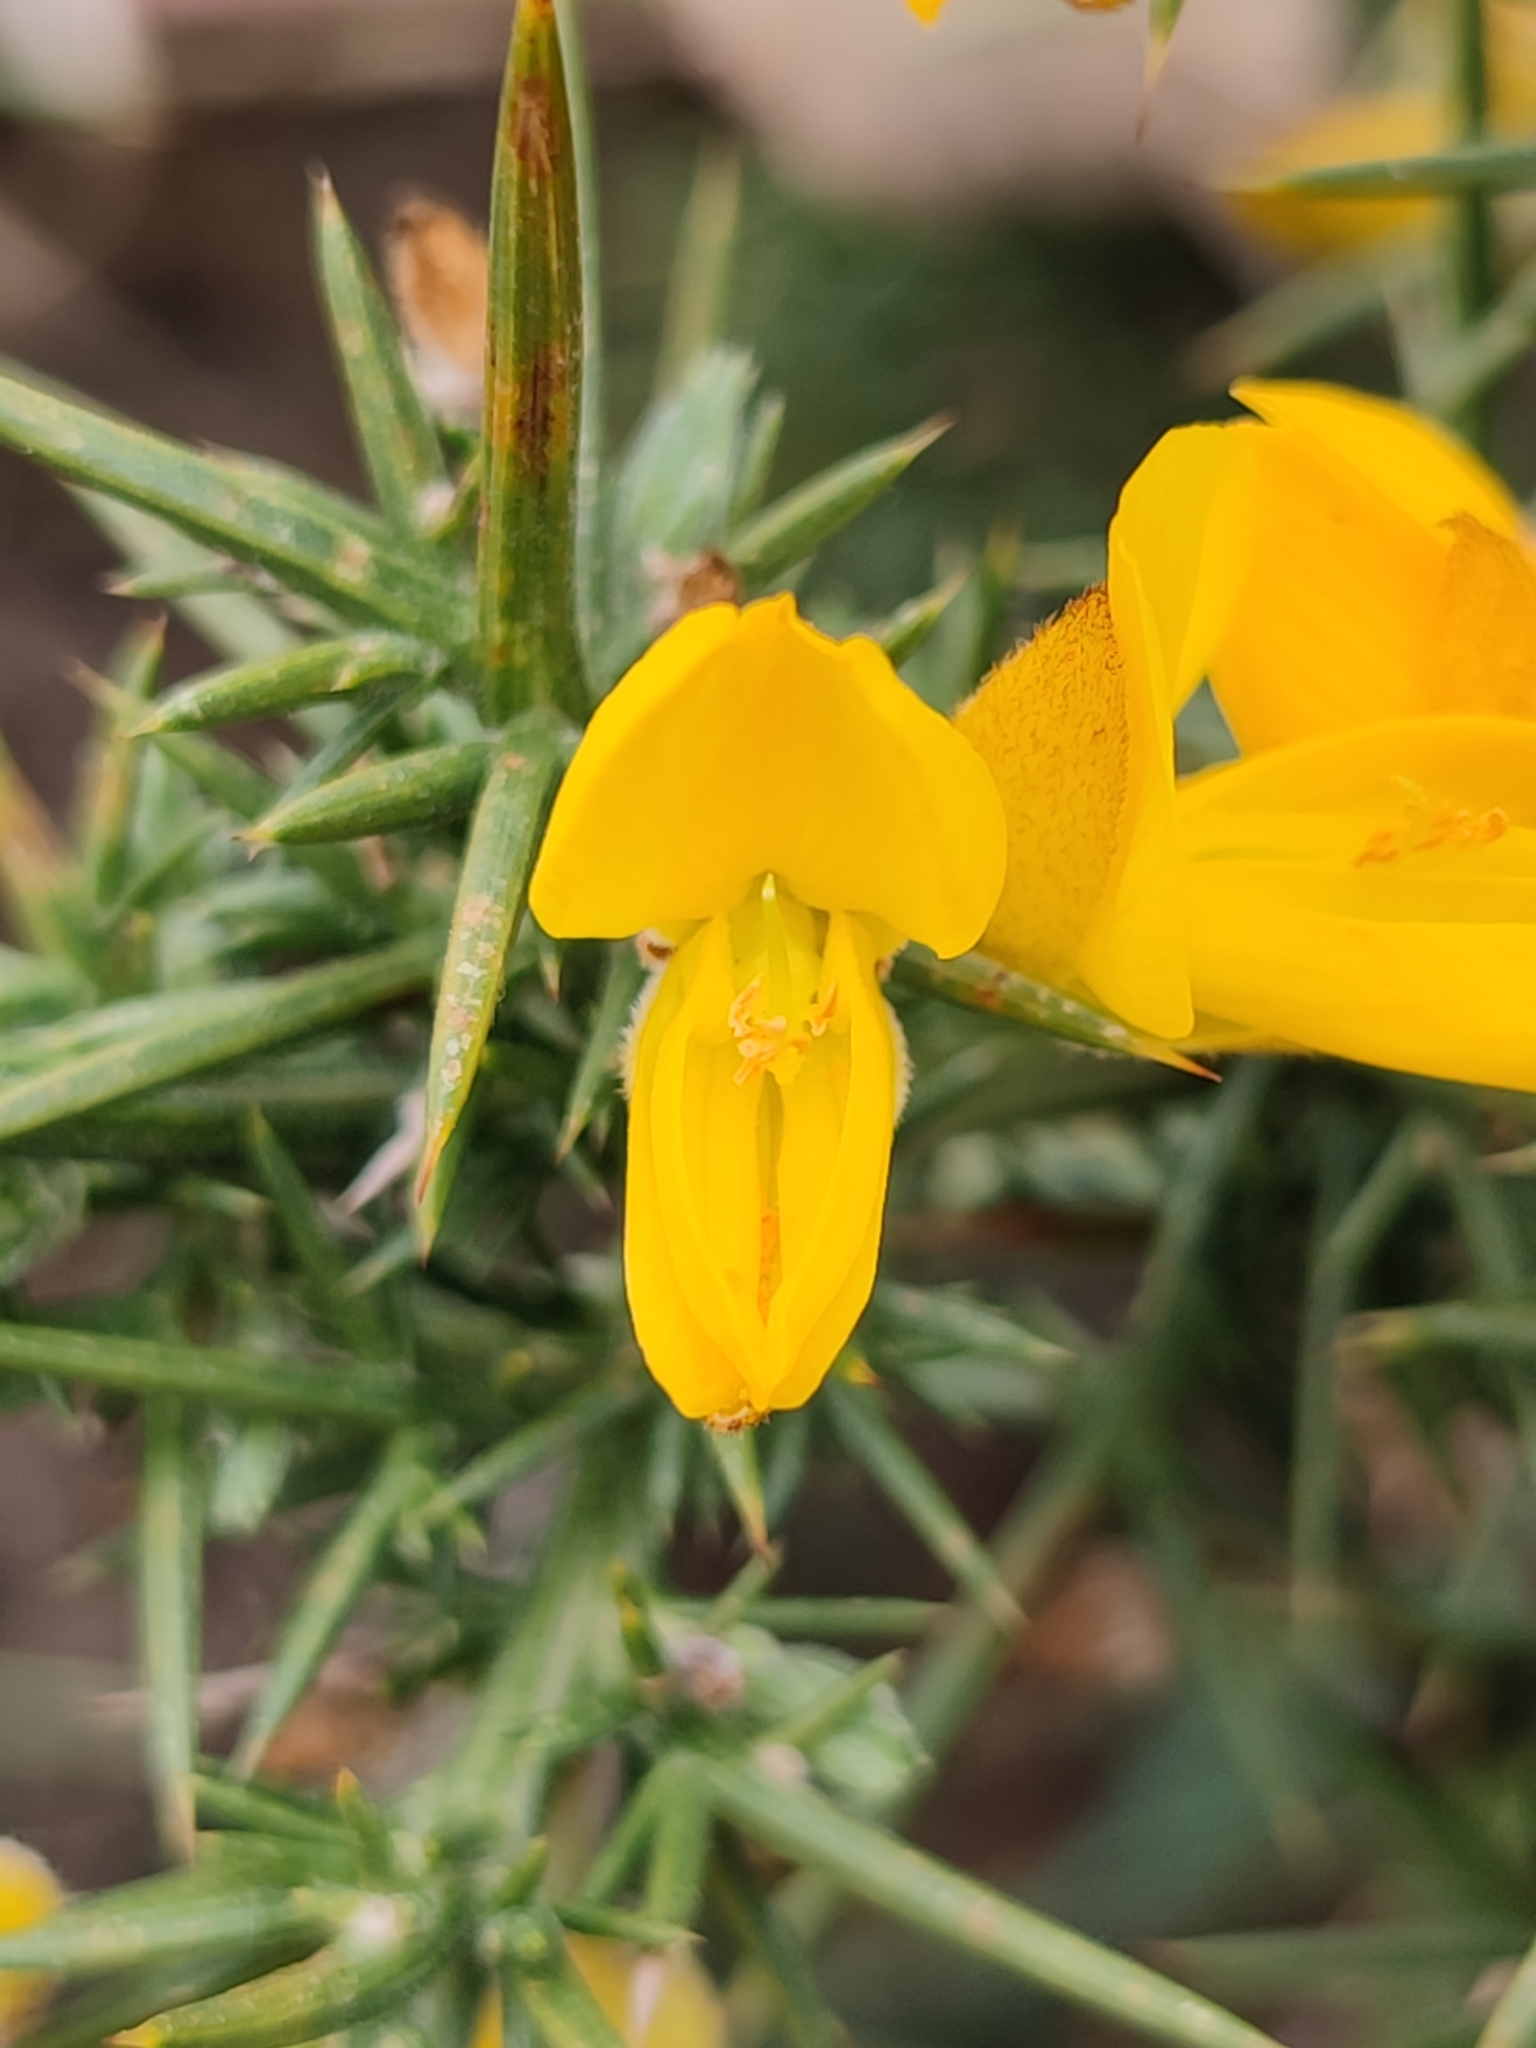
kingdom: Plantae
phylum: Tracheophyta
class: Magnoliopsida
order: Fabales
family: Fabaceae
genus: Ulex
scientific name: Ulex europaeus
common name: Common gorse
